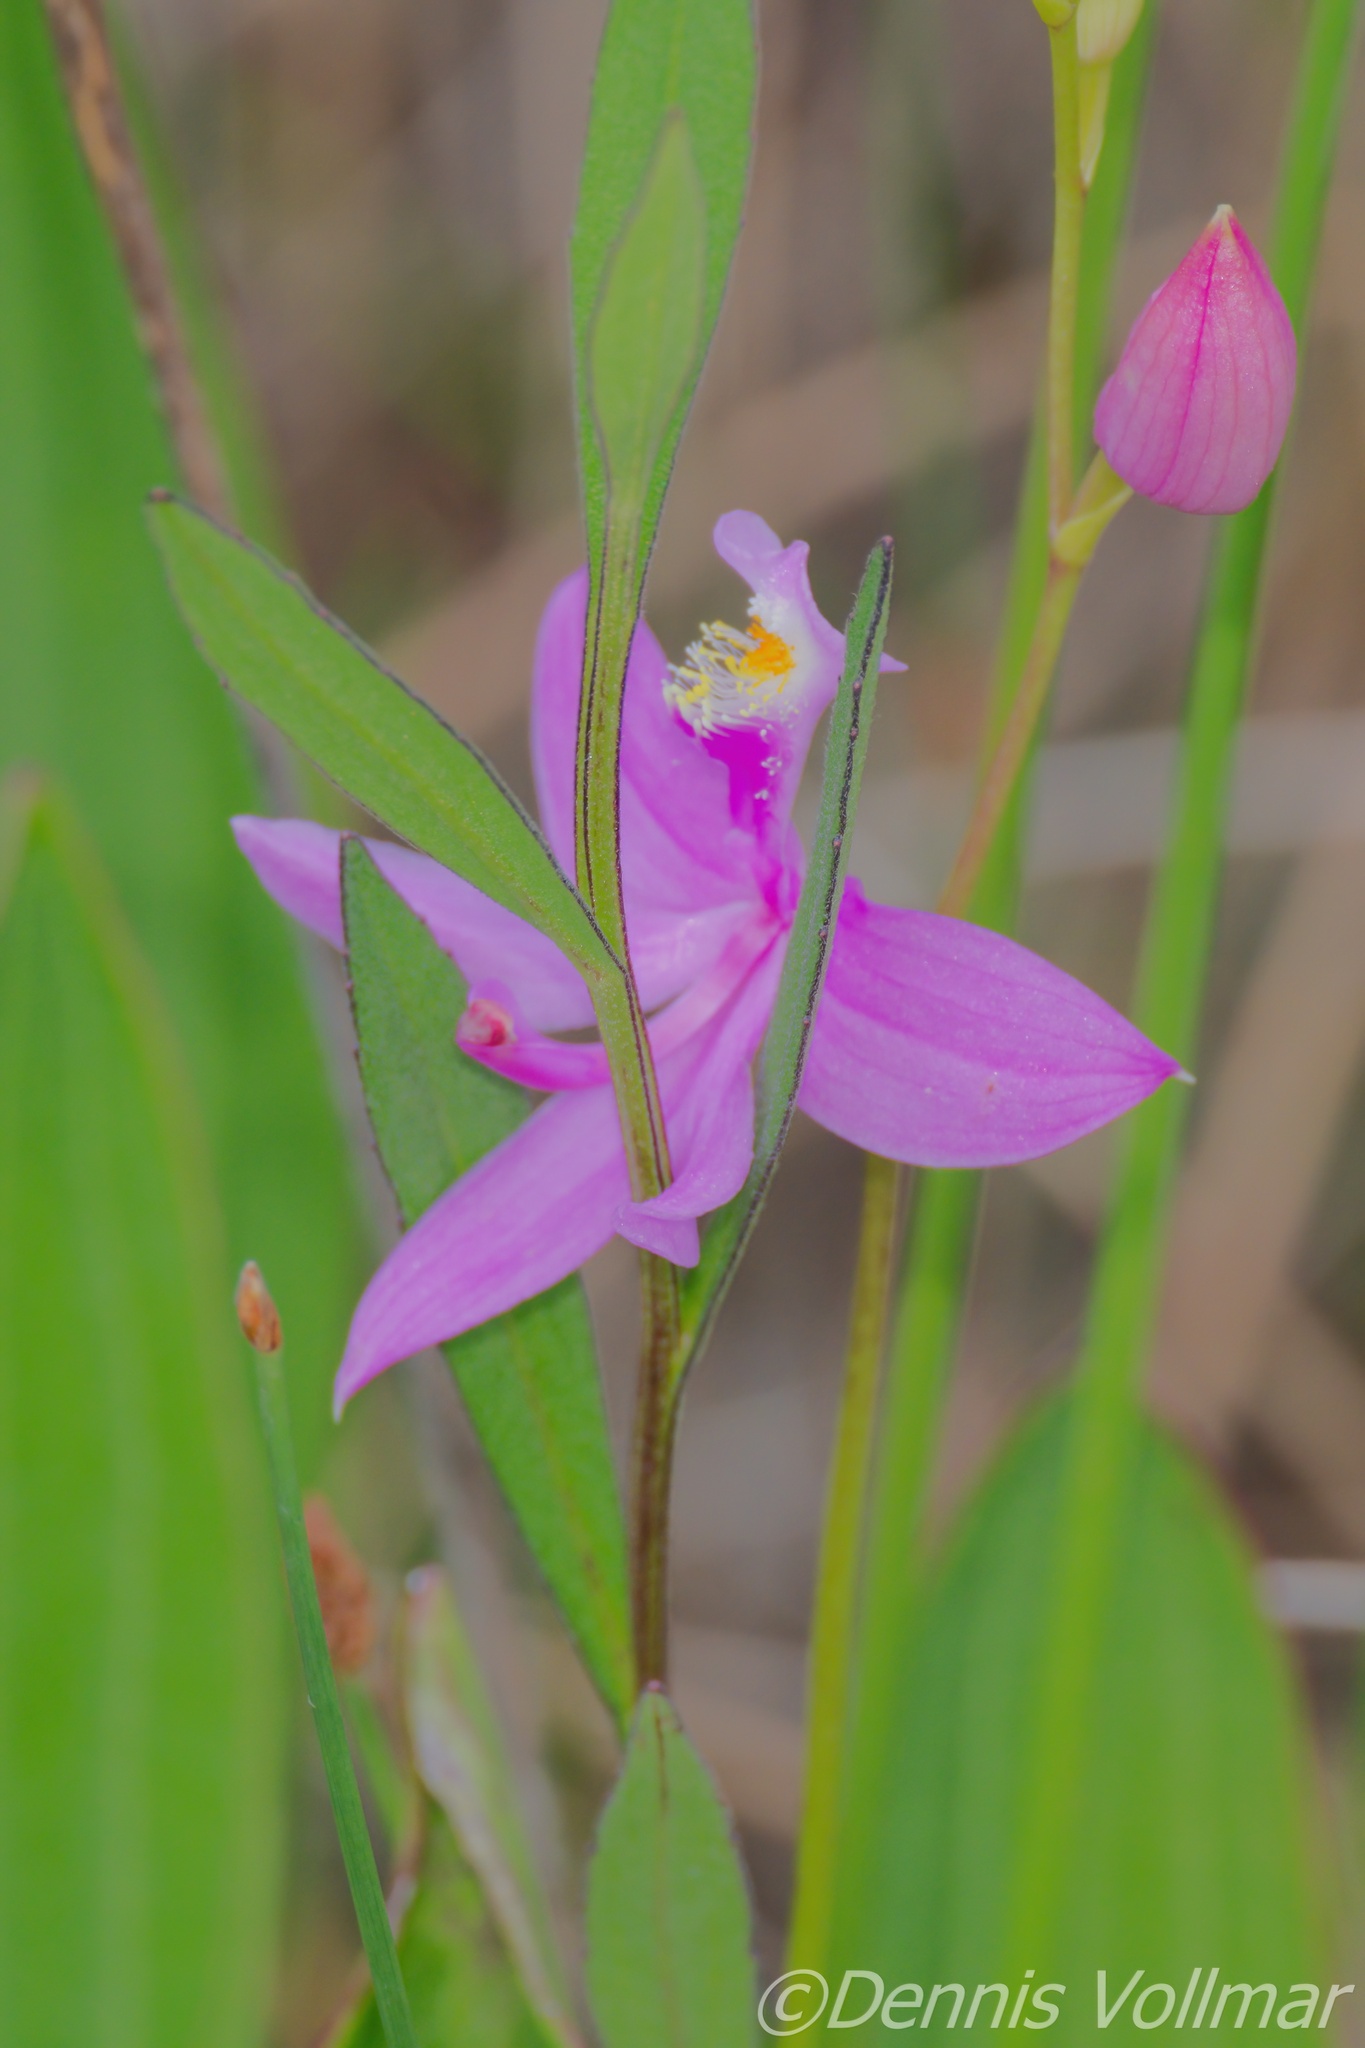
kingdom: Plantae
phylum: Tracheophyta
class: Liliopsida
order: Asparagales
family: Orchidaceae
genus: Calopogon
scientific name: Calopogon tuberosus
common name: Grass-pink
